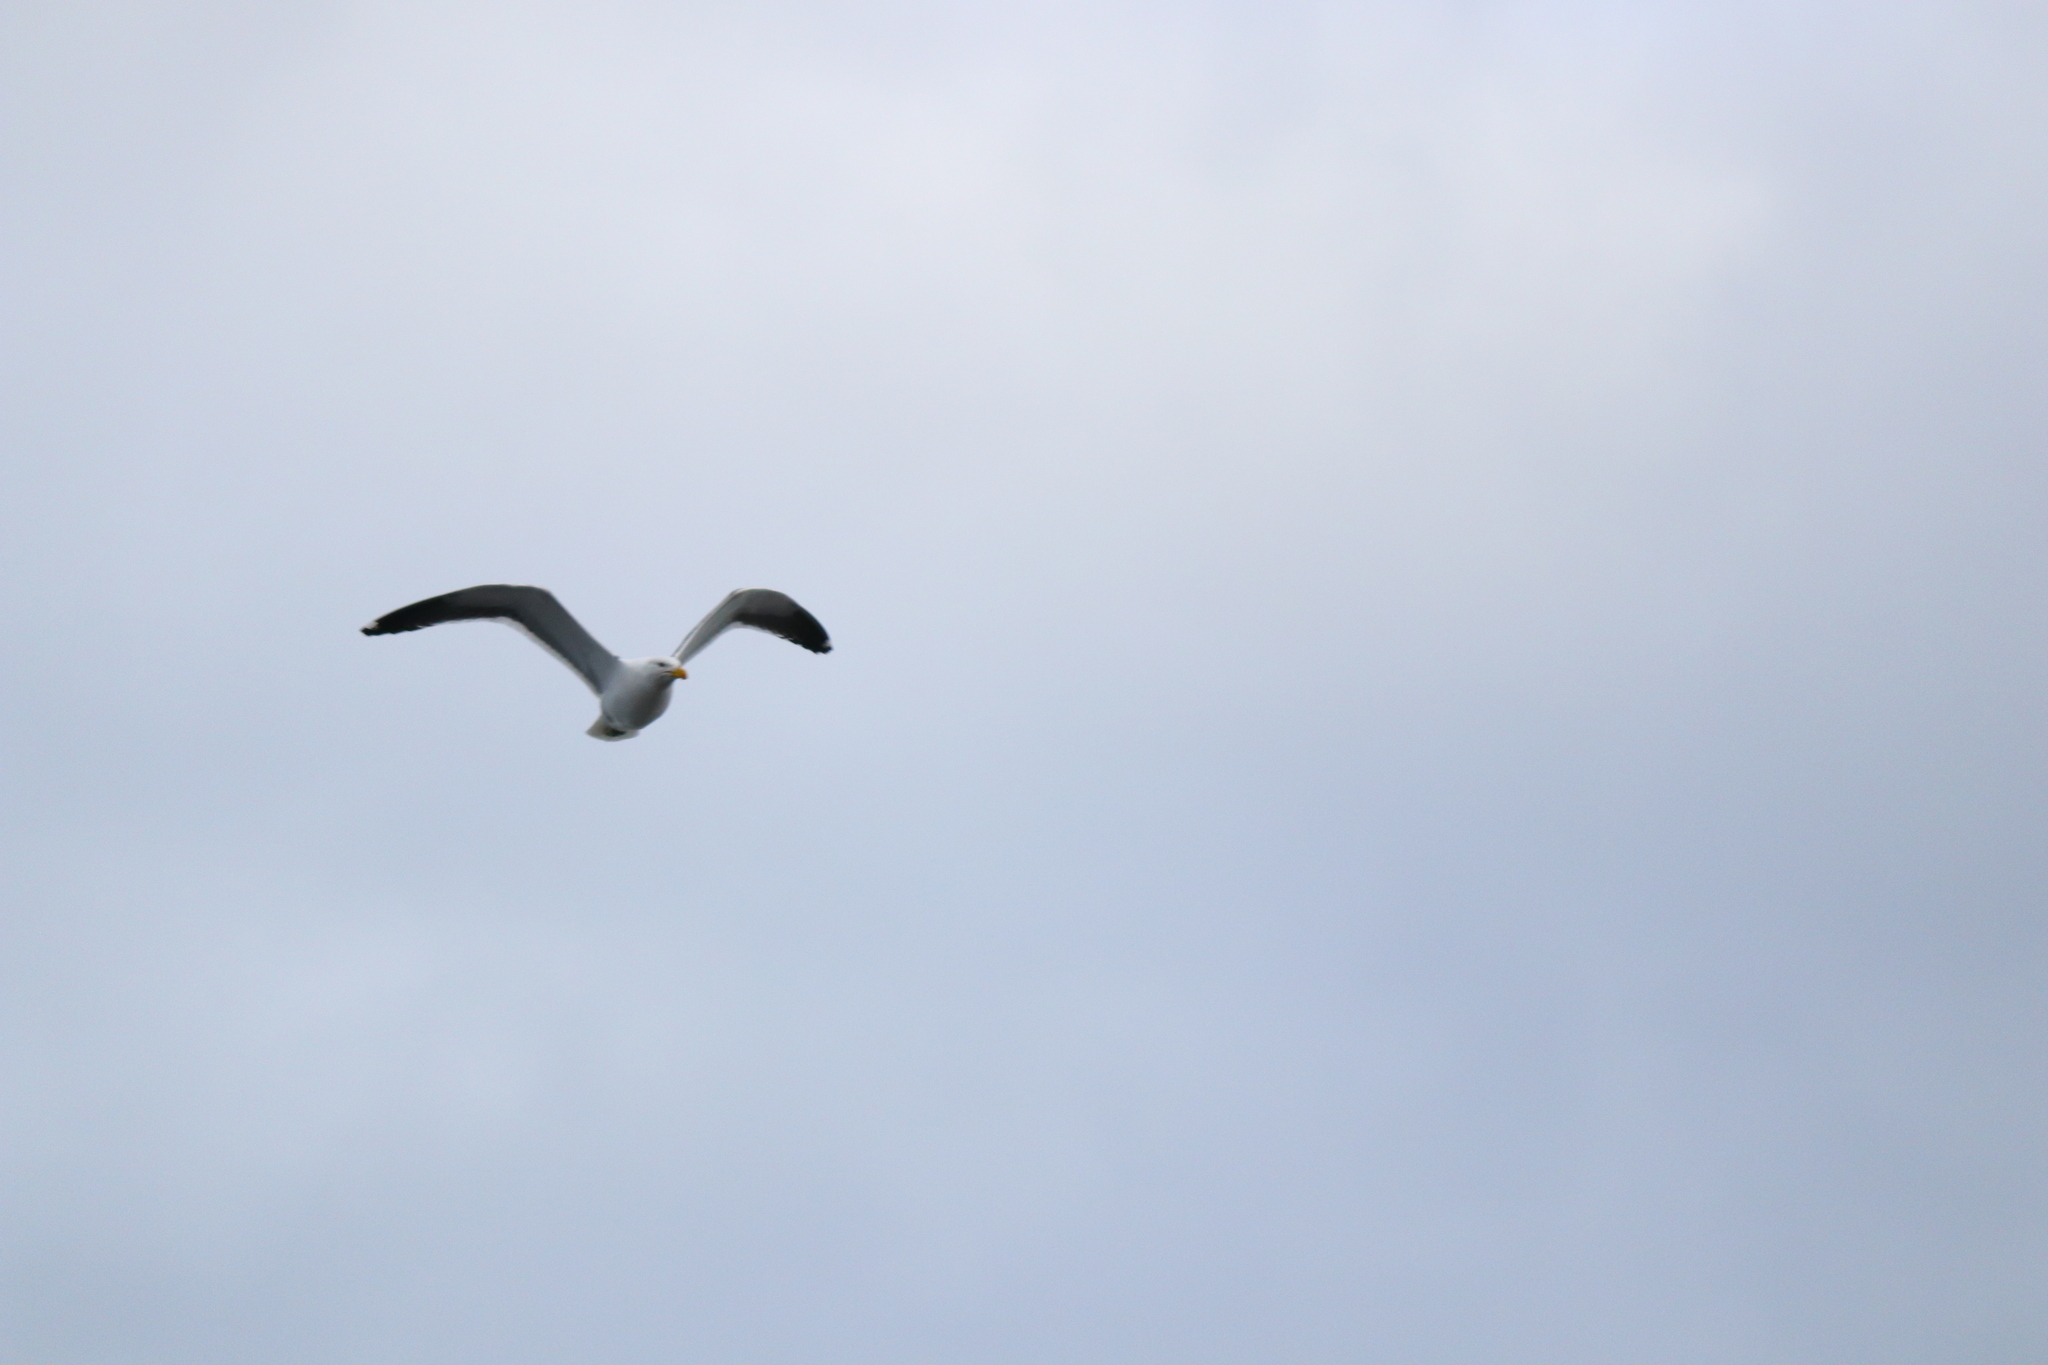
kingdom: Animalia
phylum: Chordata
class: Aves
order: Charadriiformes
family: Laridae
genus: Larus
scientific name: Larus dominicanus
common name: Kelp gull
